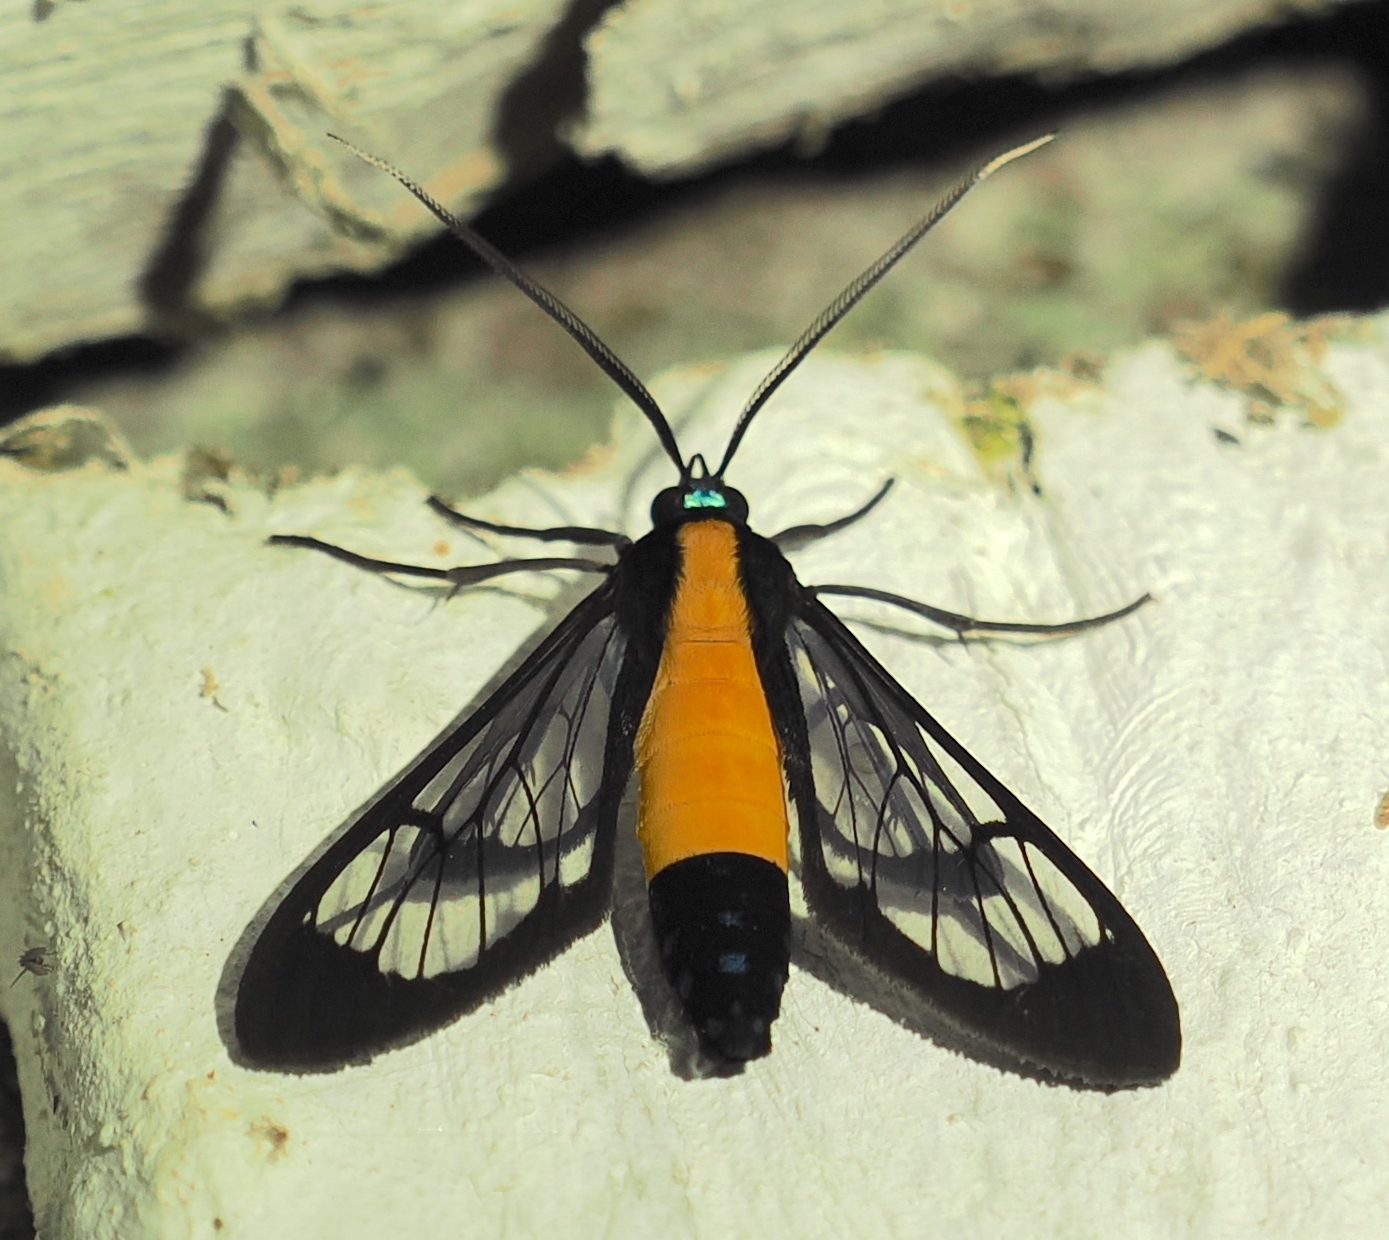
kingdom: Animalia
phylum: Arthropoda
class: Insecta
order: Lepidoptera
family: Erebidae
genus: Cosmosoma
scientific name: Cosmosoma flavothorax
